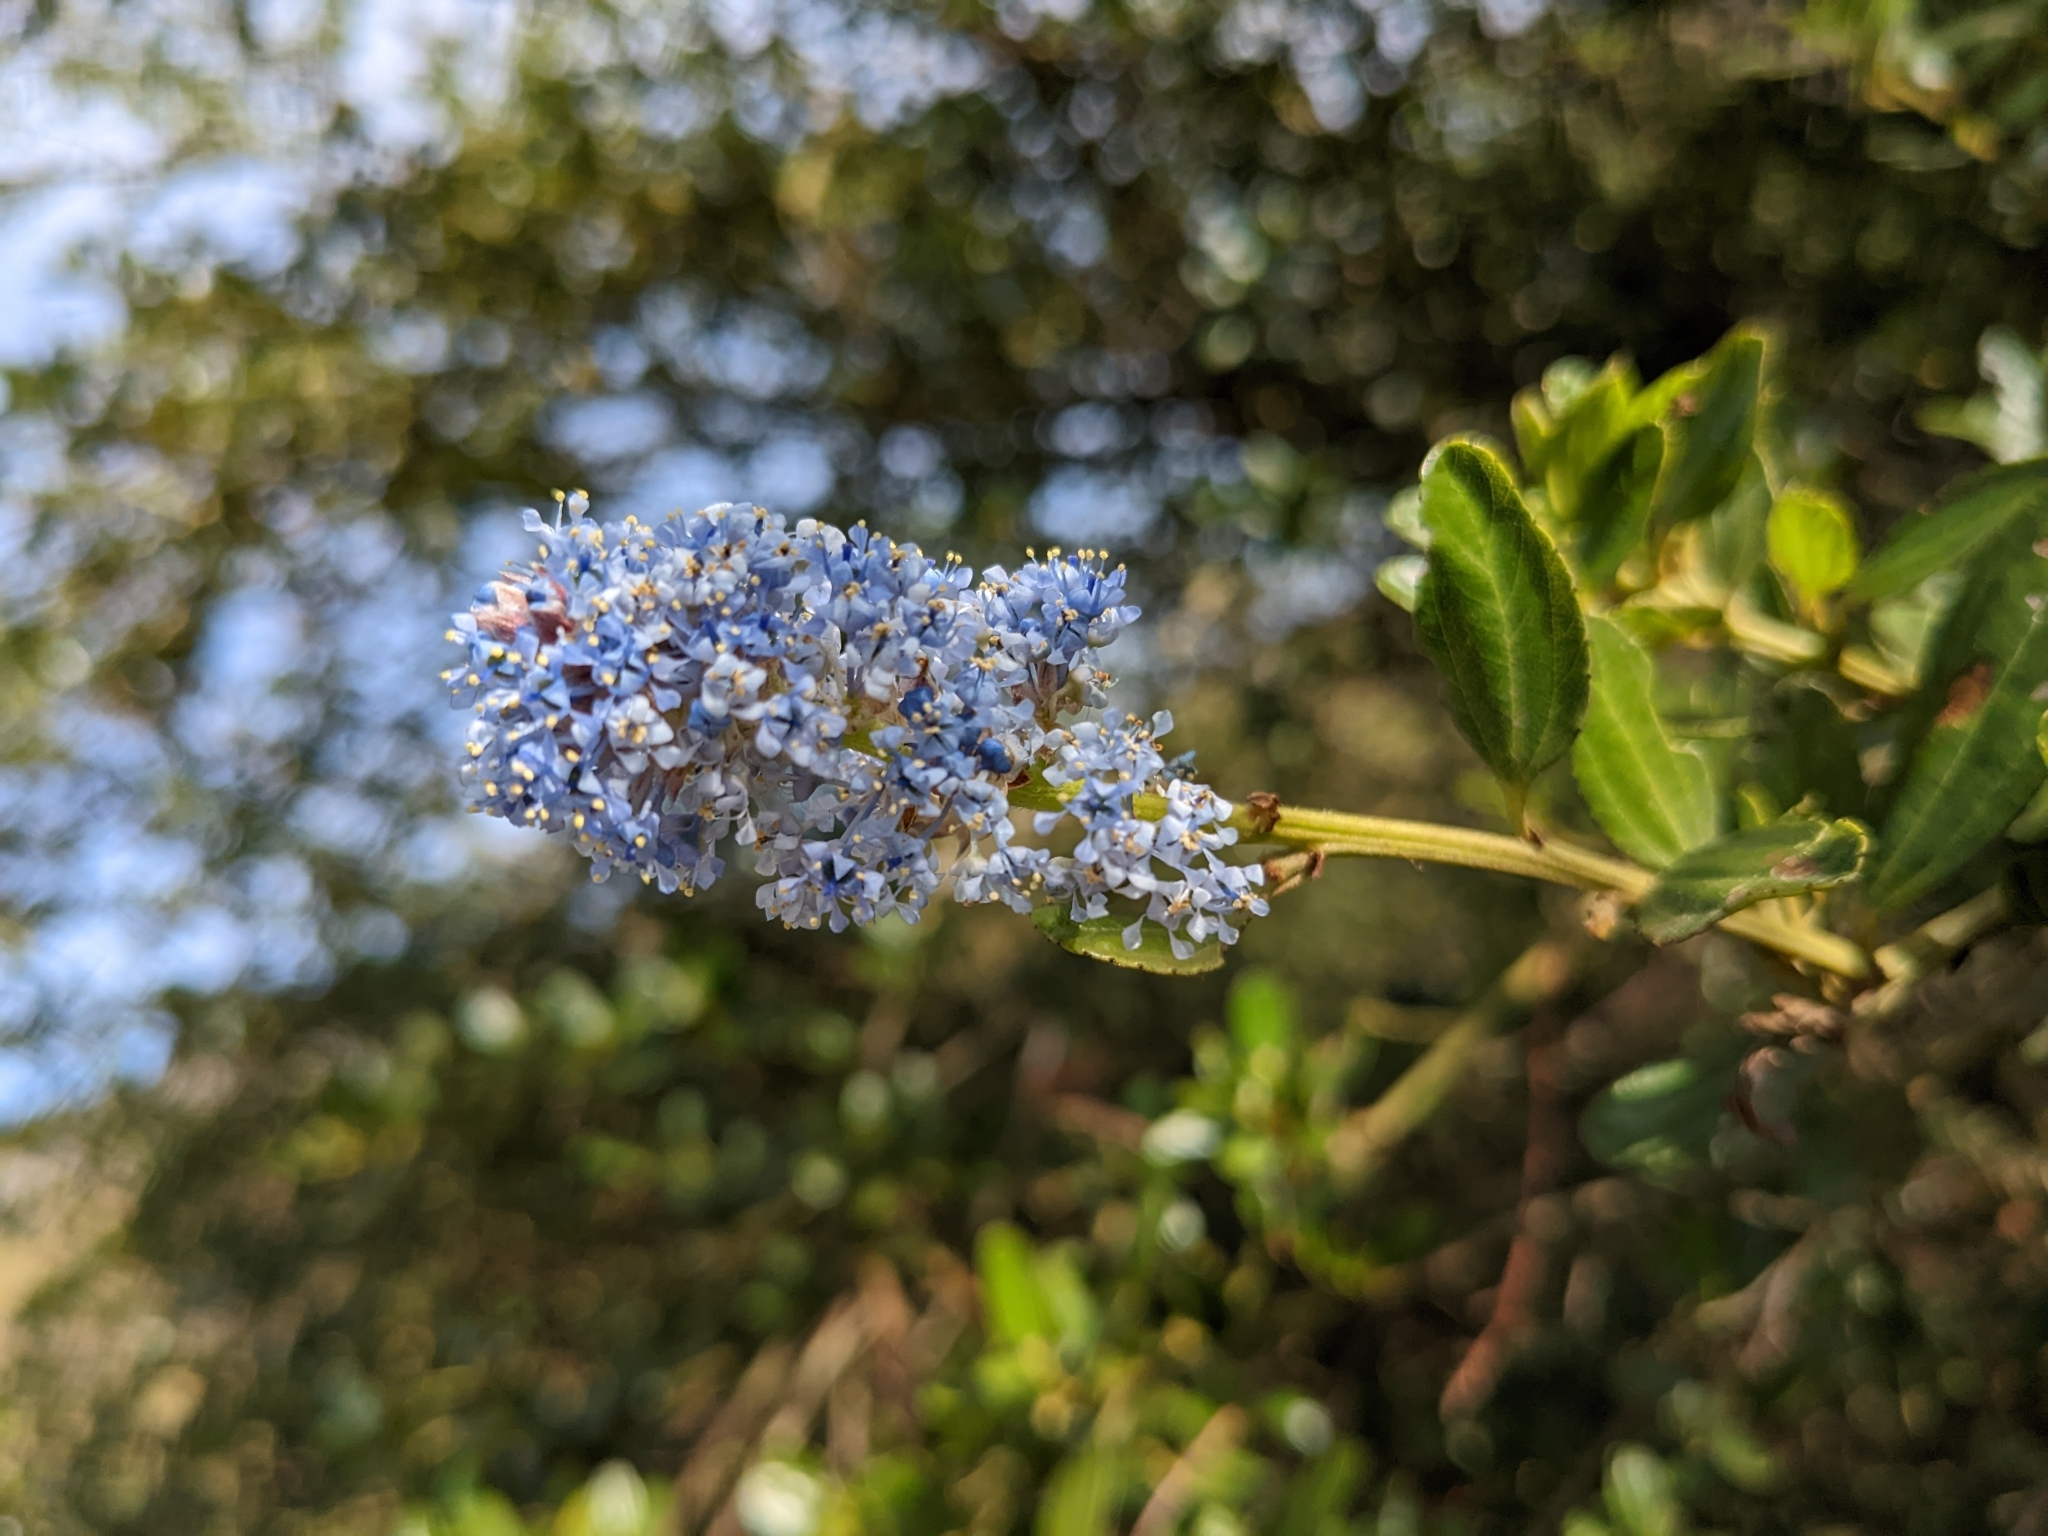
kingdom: Plantae
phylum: Tracheophyta
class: Magnoliopsida
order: Rosales
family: Rhamnaceae
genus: Ceanothus
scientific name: Ceanothus thyrsiflorus
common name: California-lilac
